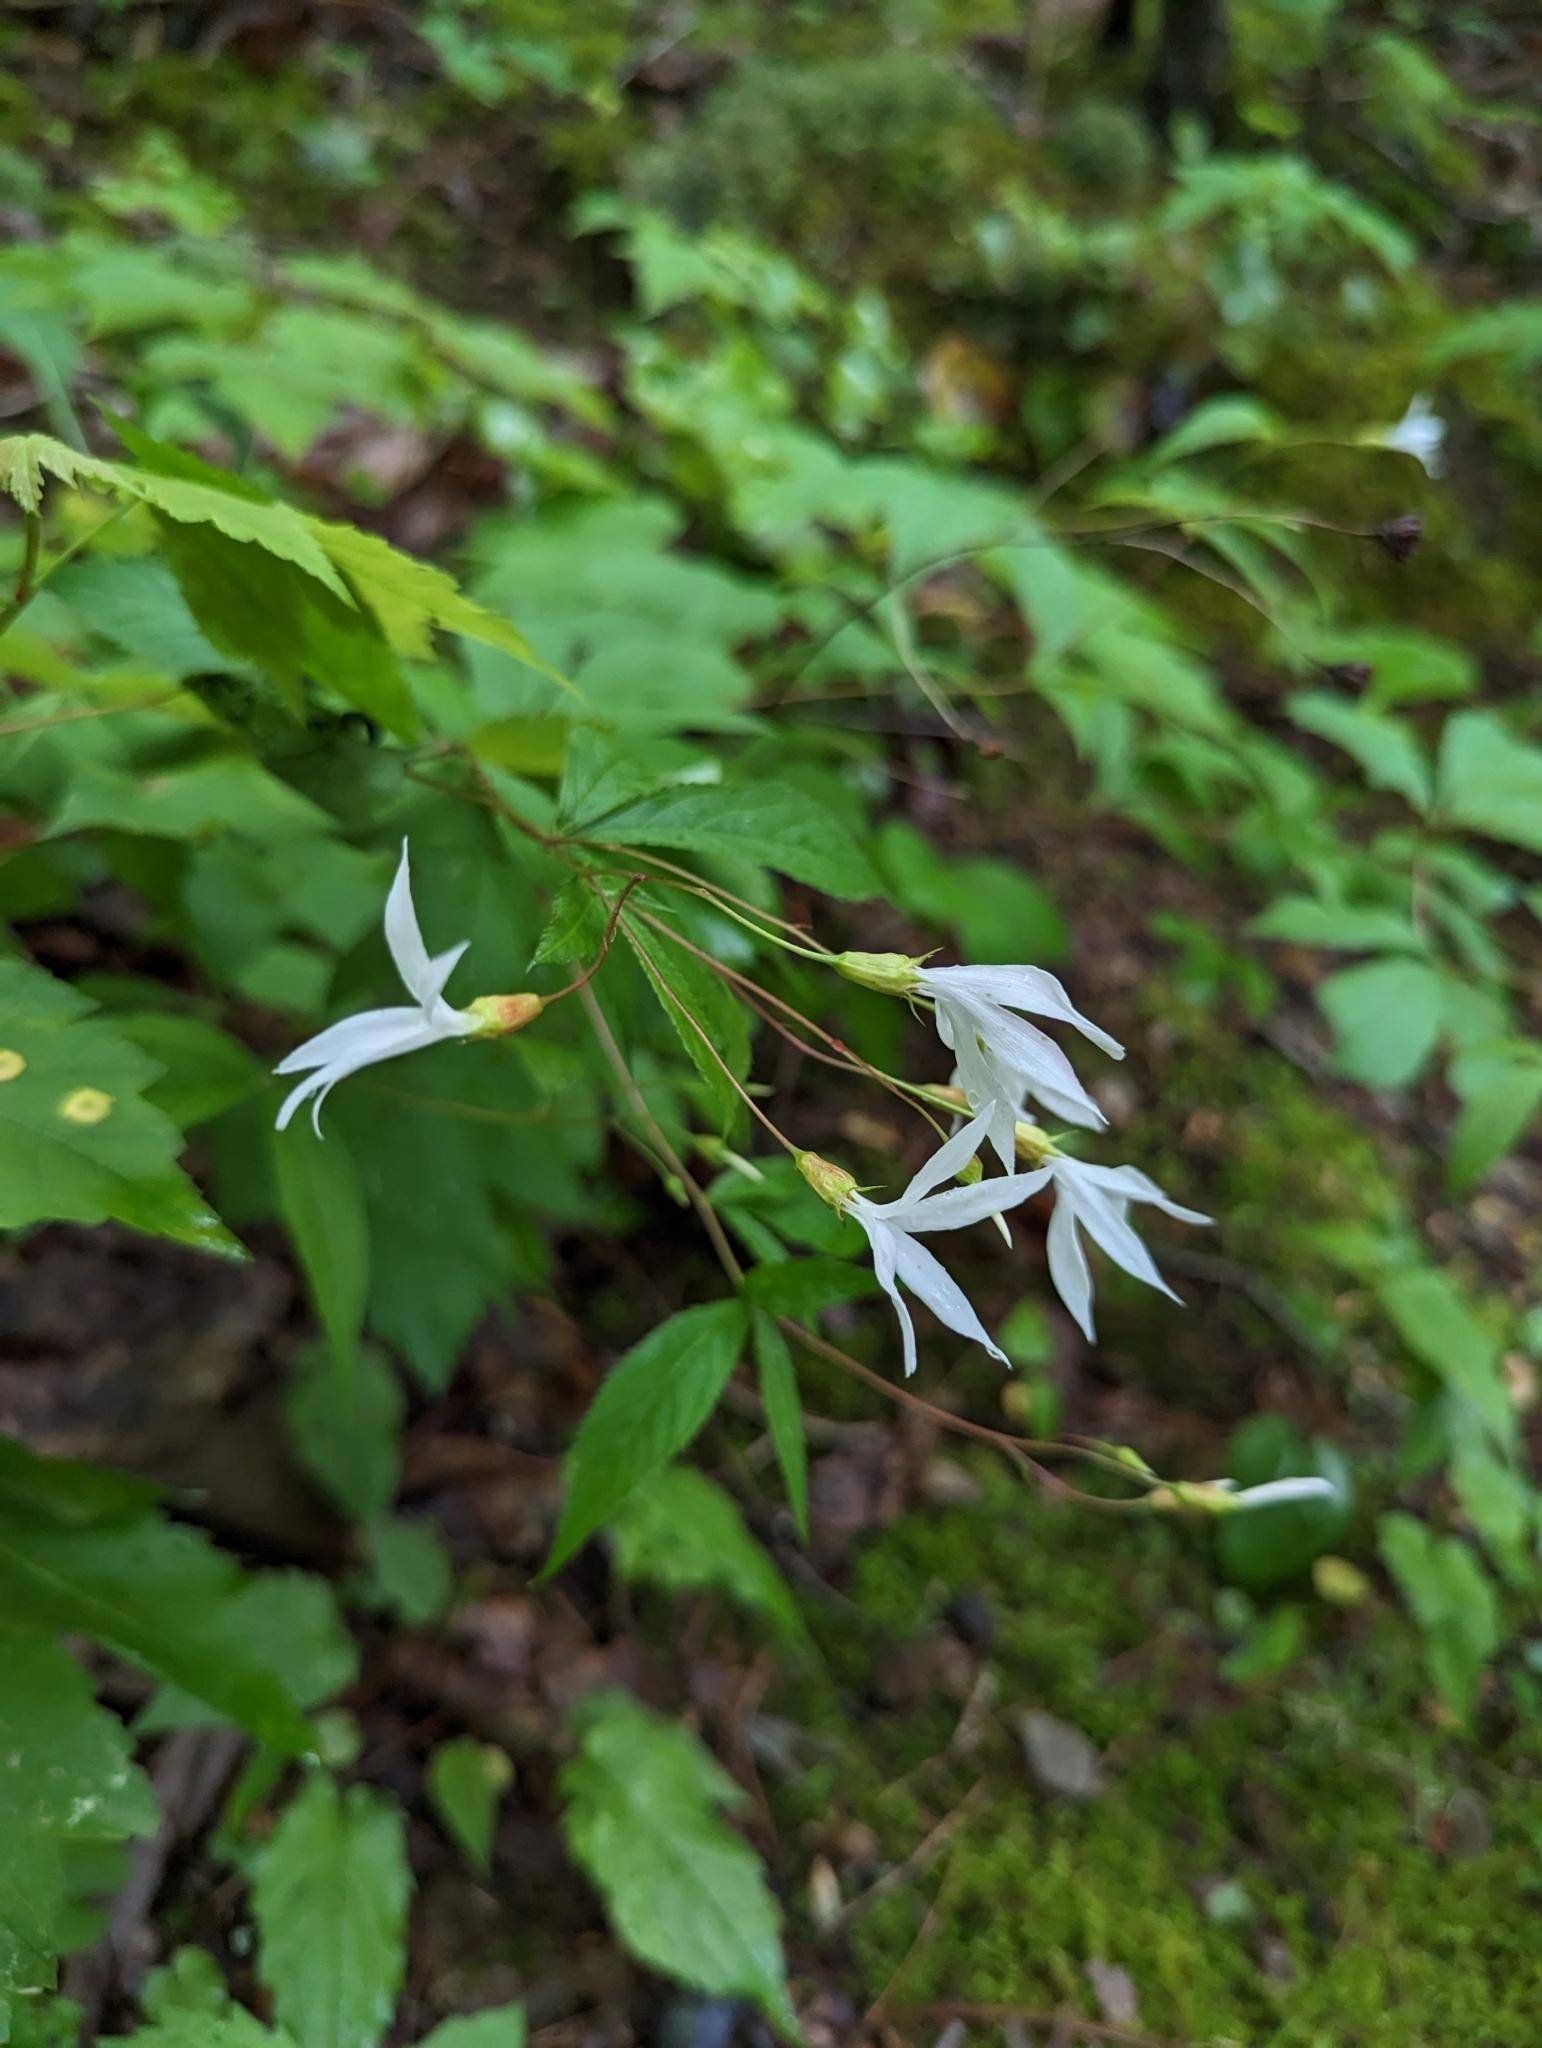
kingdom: Plantae
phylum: Tracheophyta
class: Magnoliopsida
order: Rosales
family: Rosaceae
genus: Gillenia
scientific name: Gillenia trifoliata
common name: Bowman's-root
